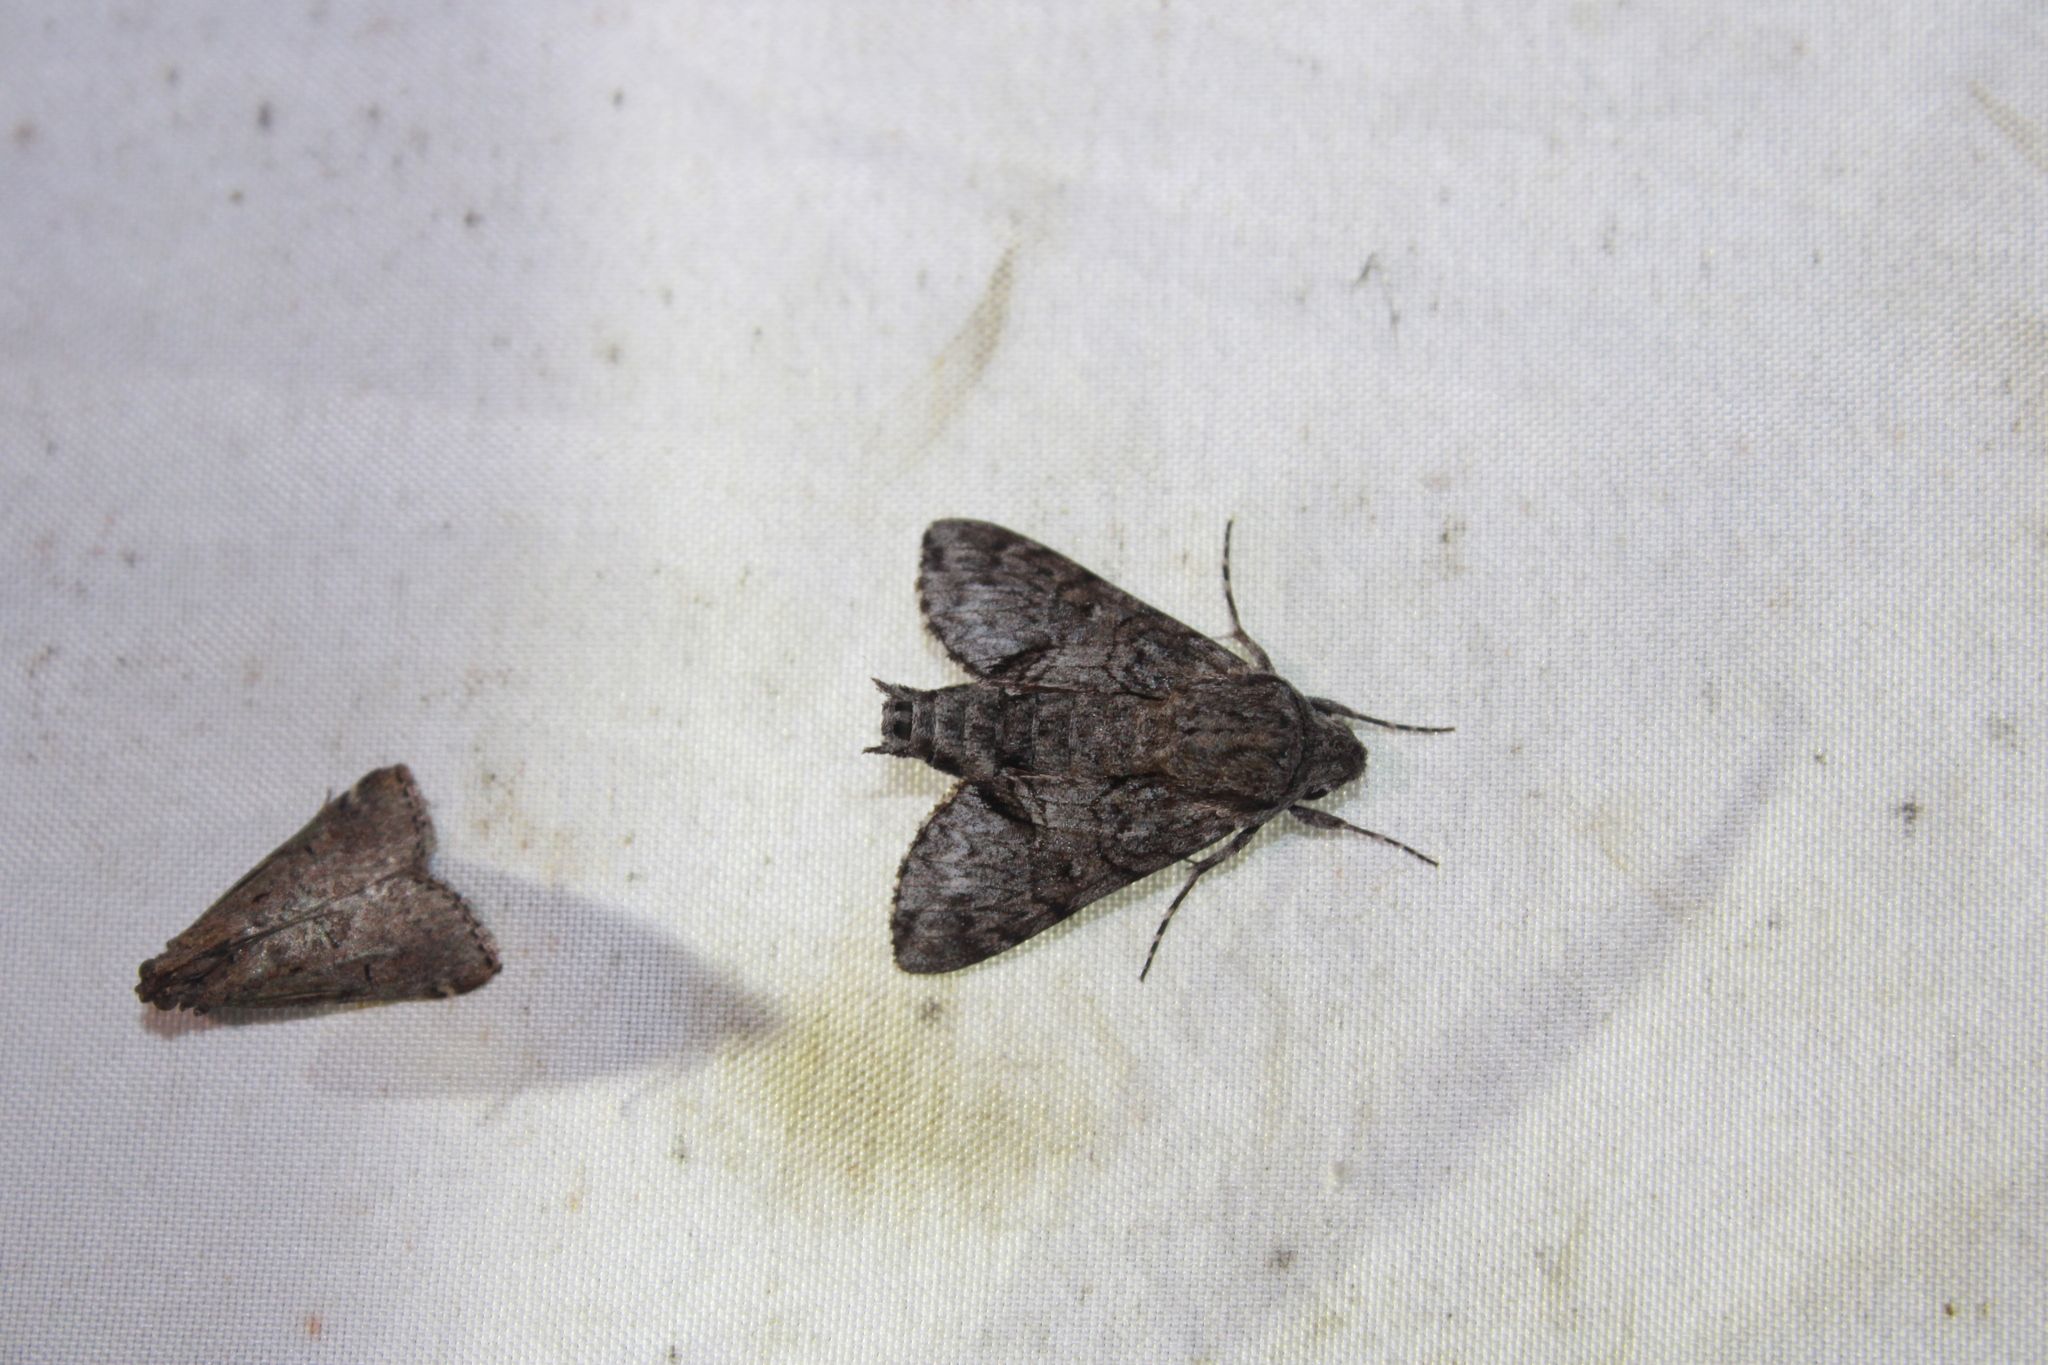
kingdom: Animalia
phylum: Arthropoda
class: Insecta
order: Lepidoptera
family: Sphingidae
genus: Cautethia
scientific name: Cautethia grotei
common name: Grote's sphinx
